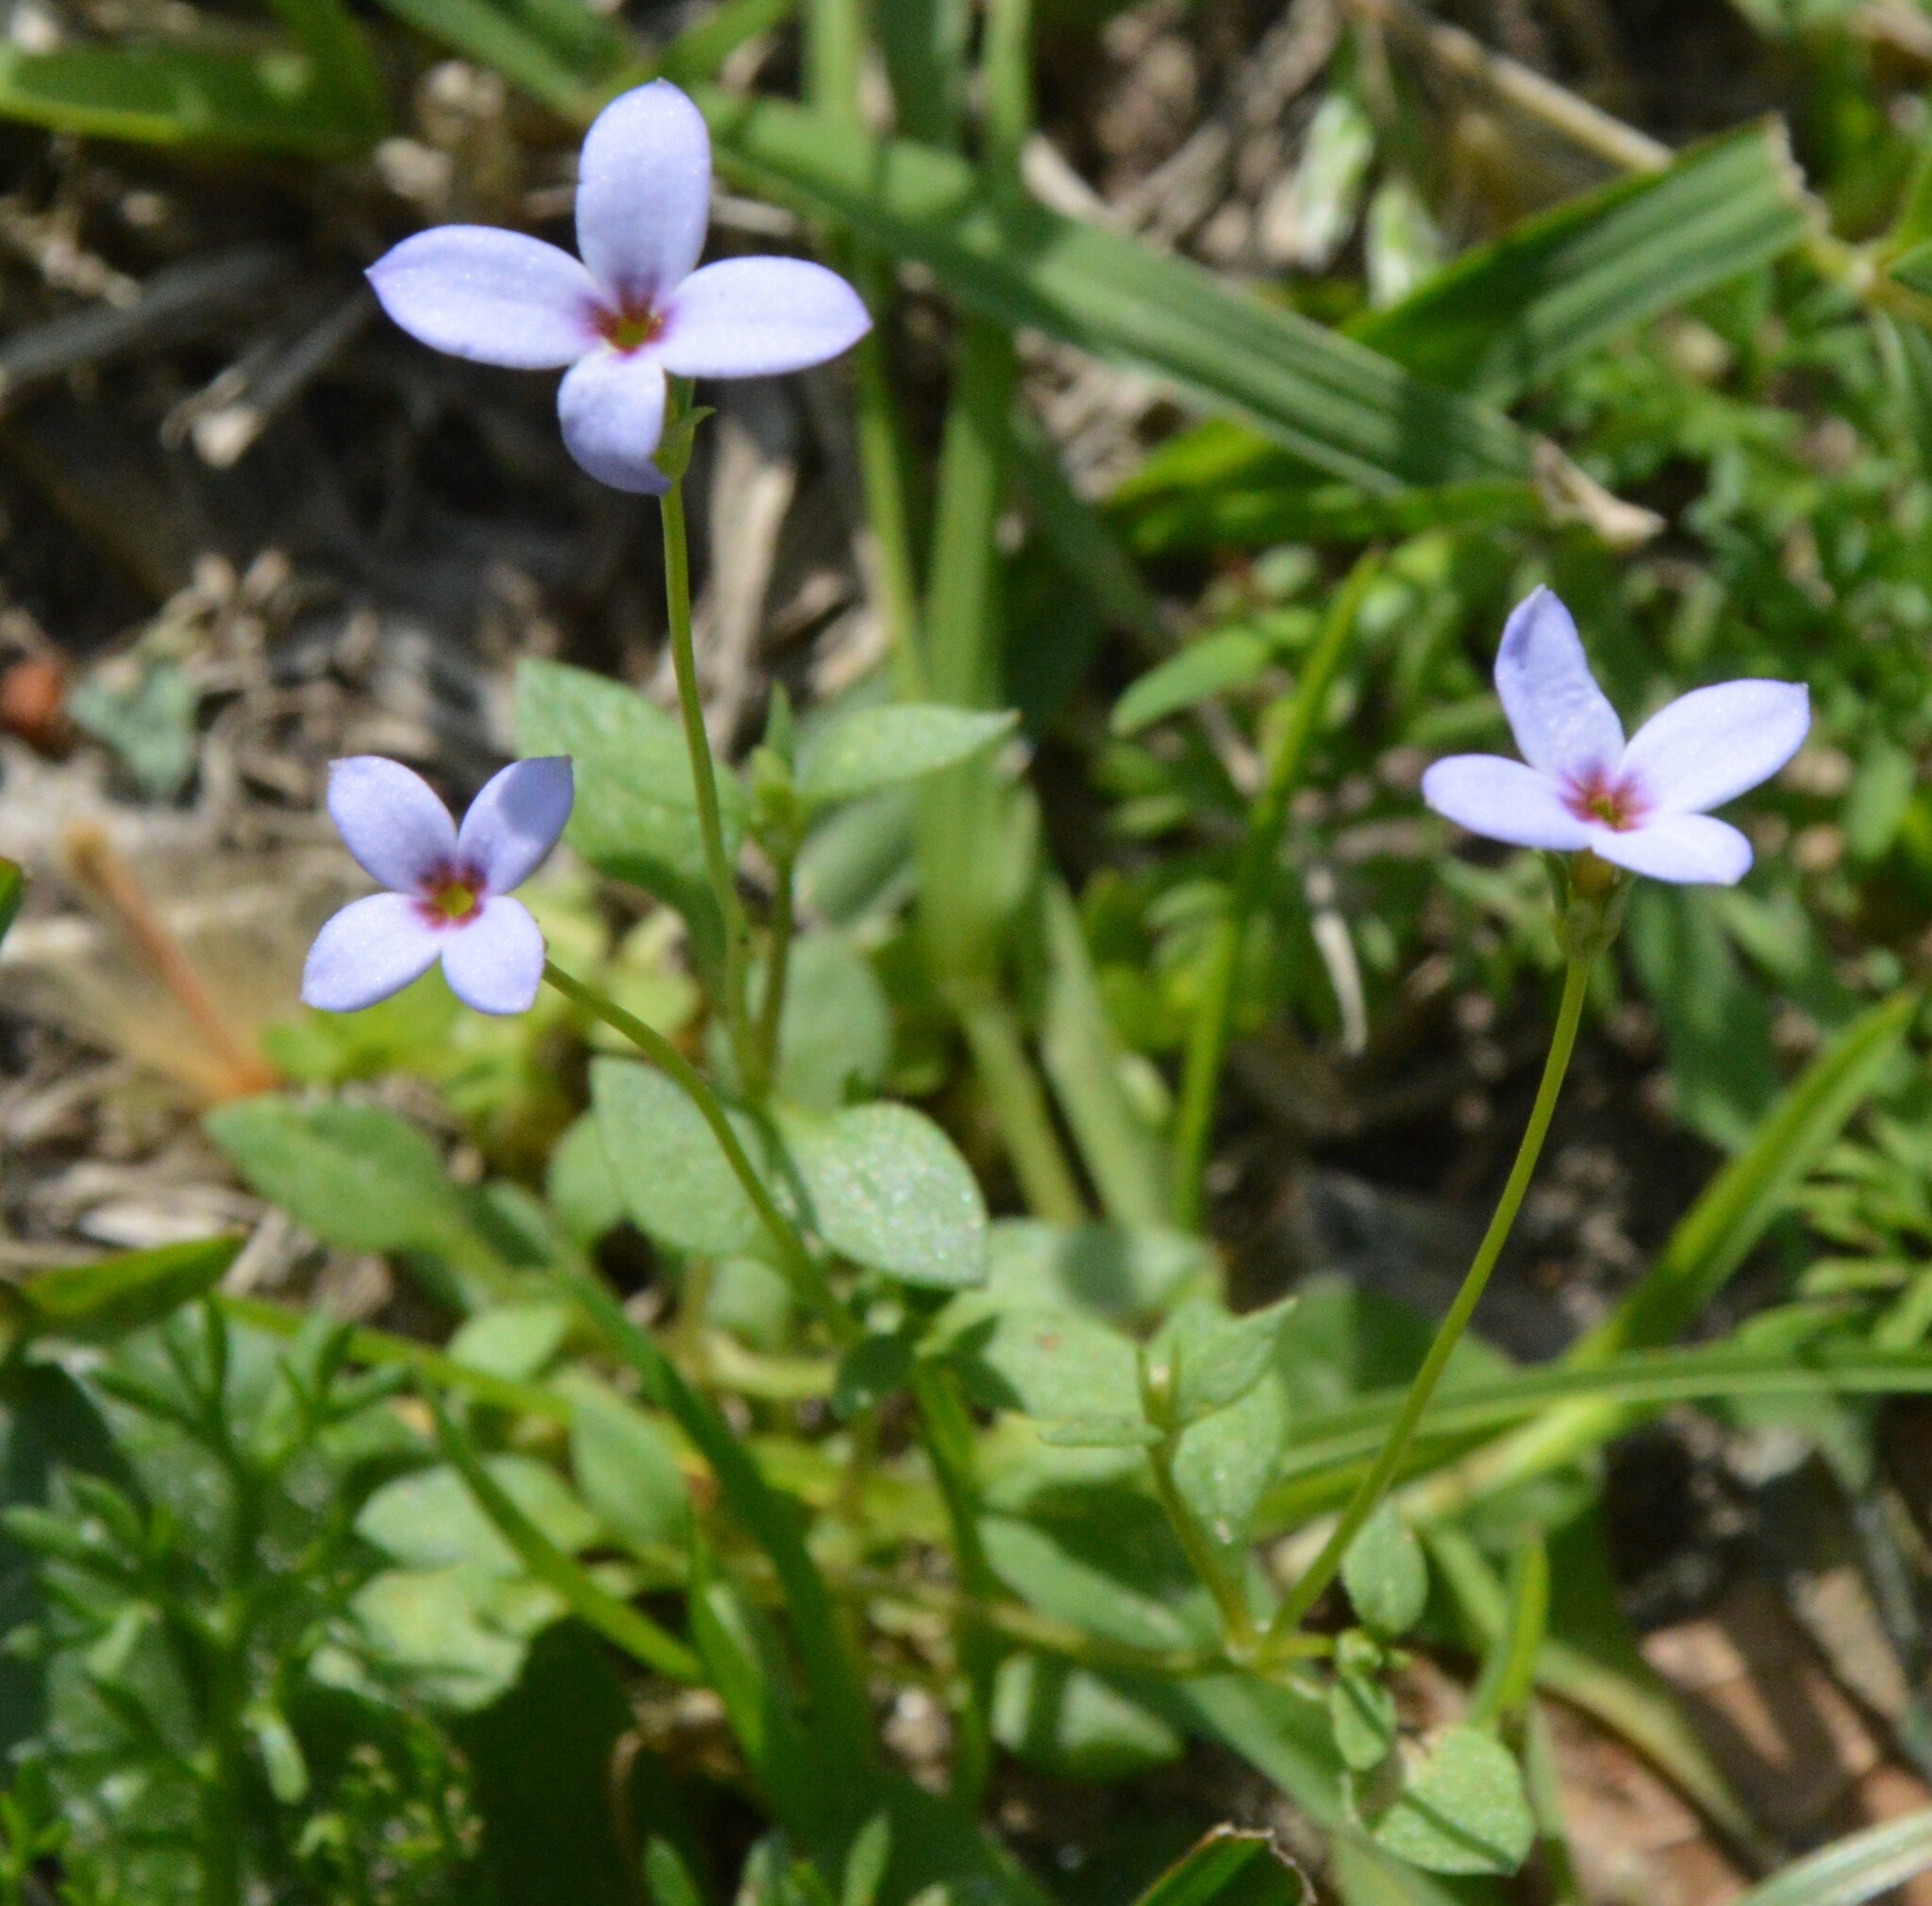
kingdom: Plantae
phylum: Tracheophyta
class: Magnoliopsida
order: Gentianales
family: Rubiaceae
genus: Houstonia
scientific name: Houstonia pusilla
